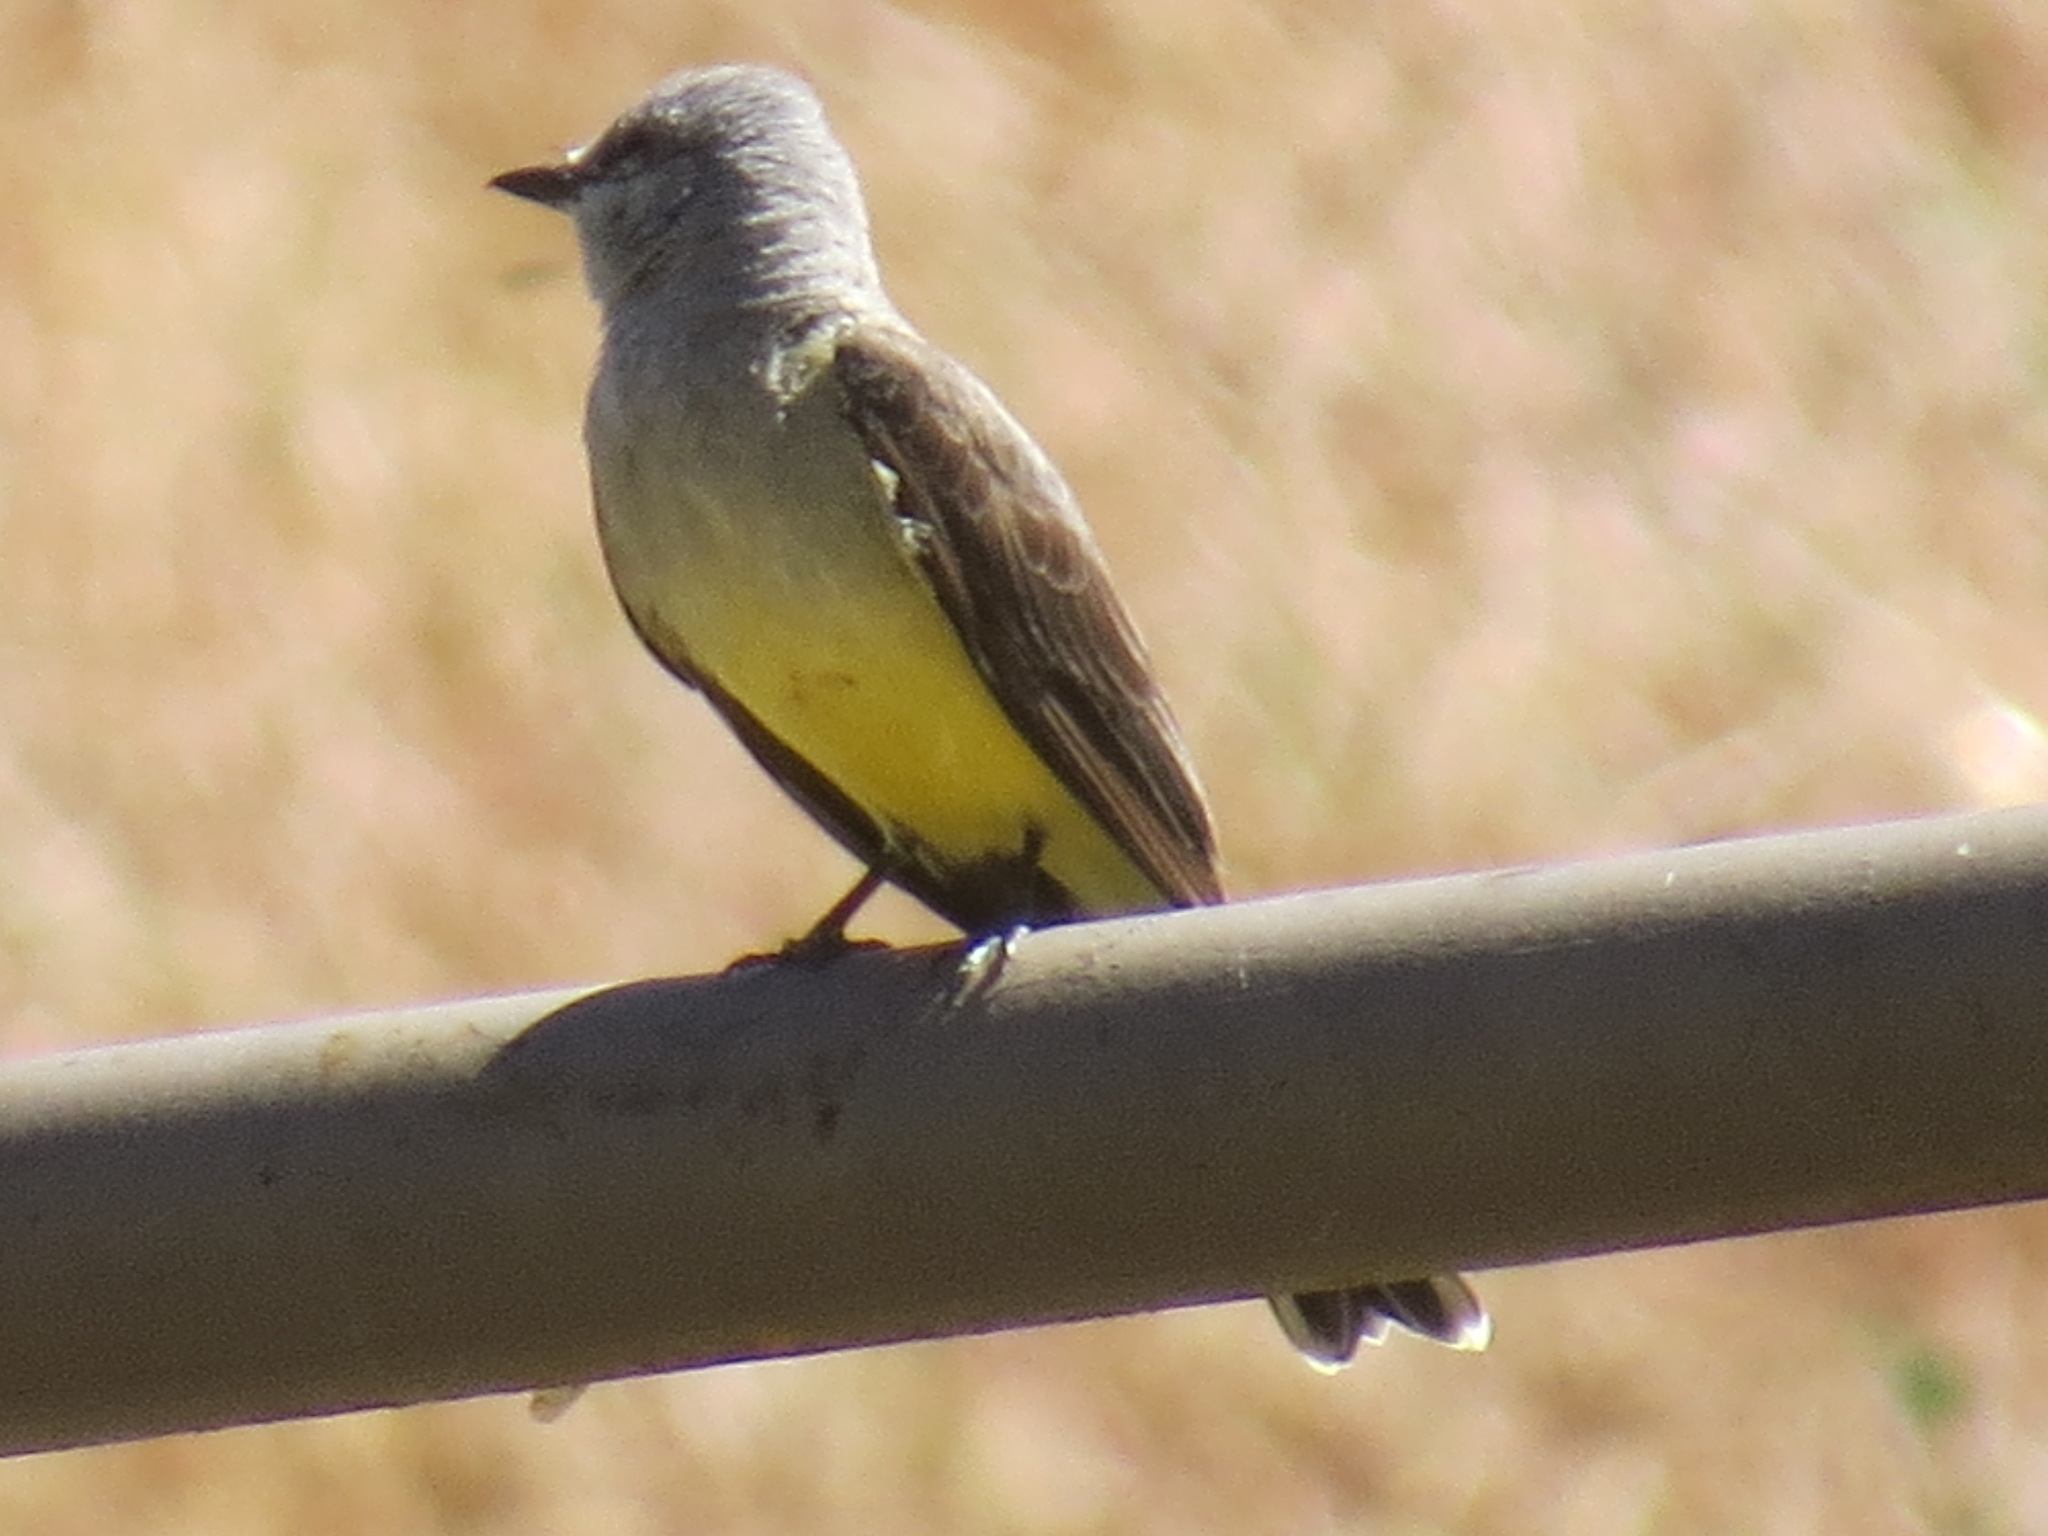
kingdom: Animalia
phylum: Chordata
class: Aves
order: Passeriformes
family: Tyrannidae
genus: Tyrannus
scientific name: Tyrannus verticalis
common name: Western kingbird
